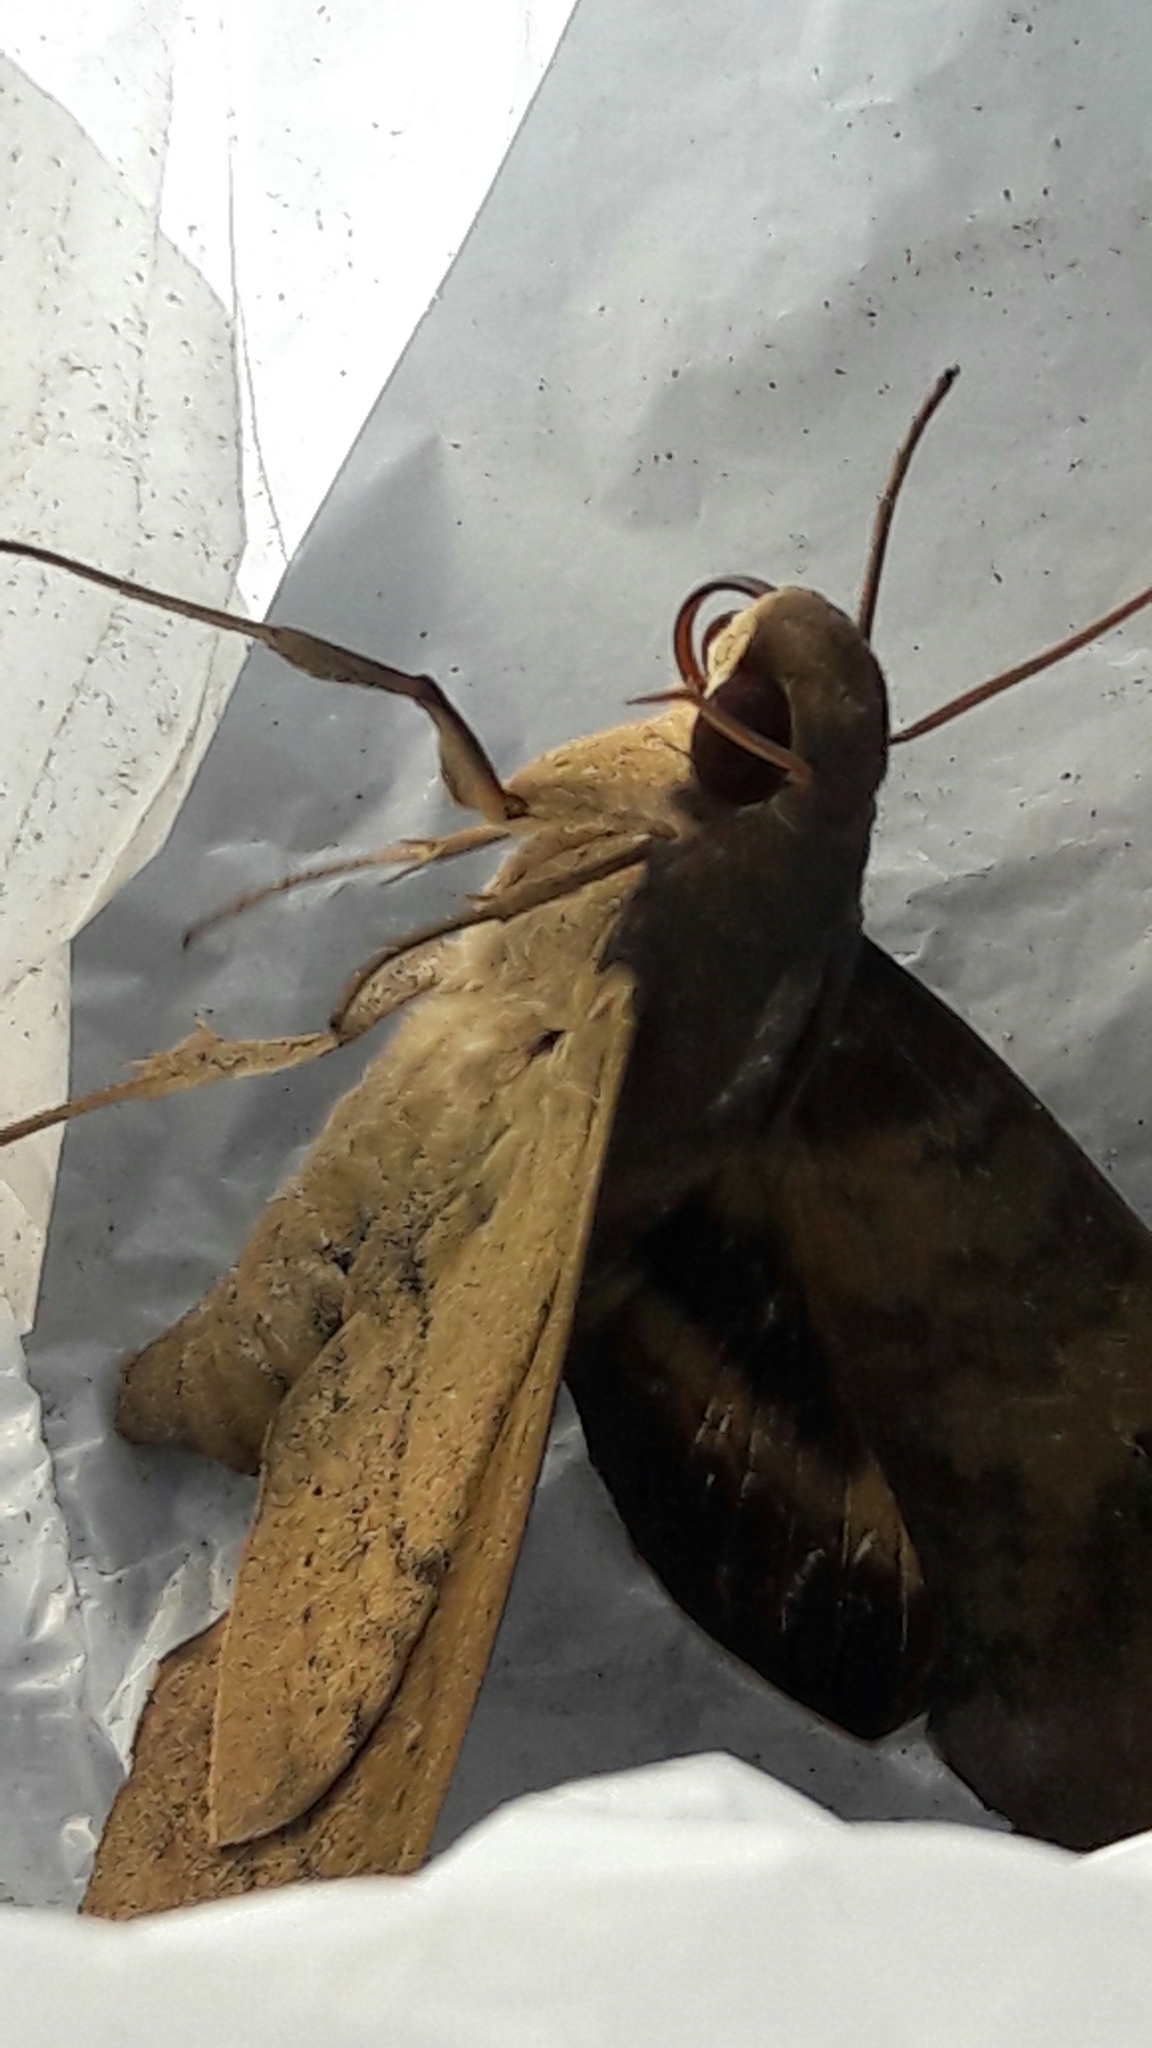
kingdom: Animalia
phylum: Arthropoda
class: Insecta
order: Lepidoptera
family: Sphingidae
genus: Pachylia
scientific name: Pachylia ficus
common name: Fig sphinx
